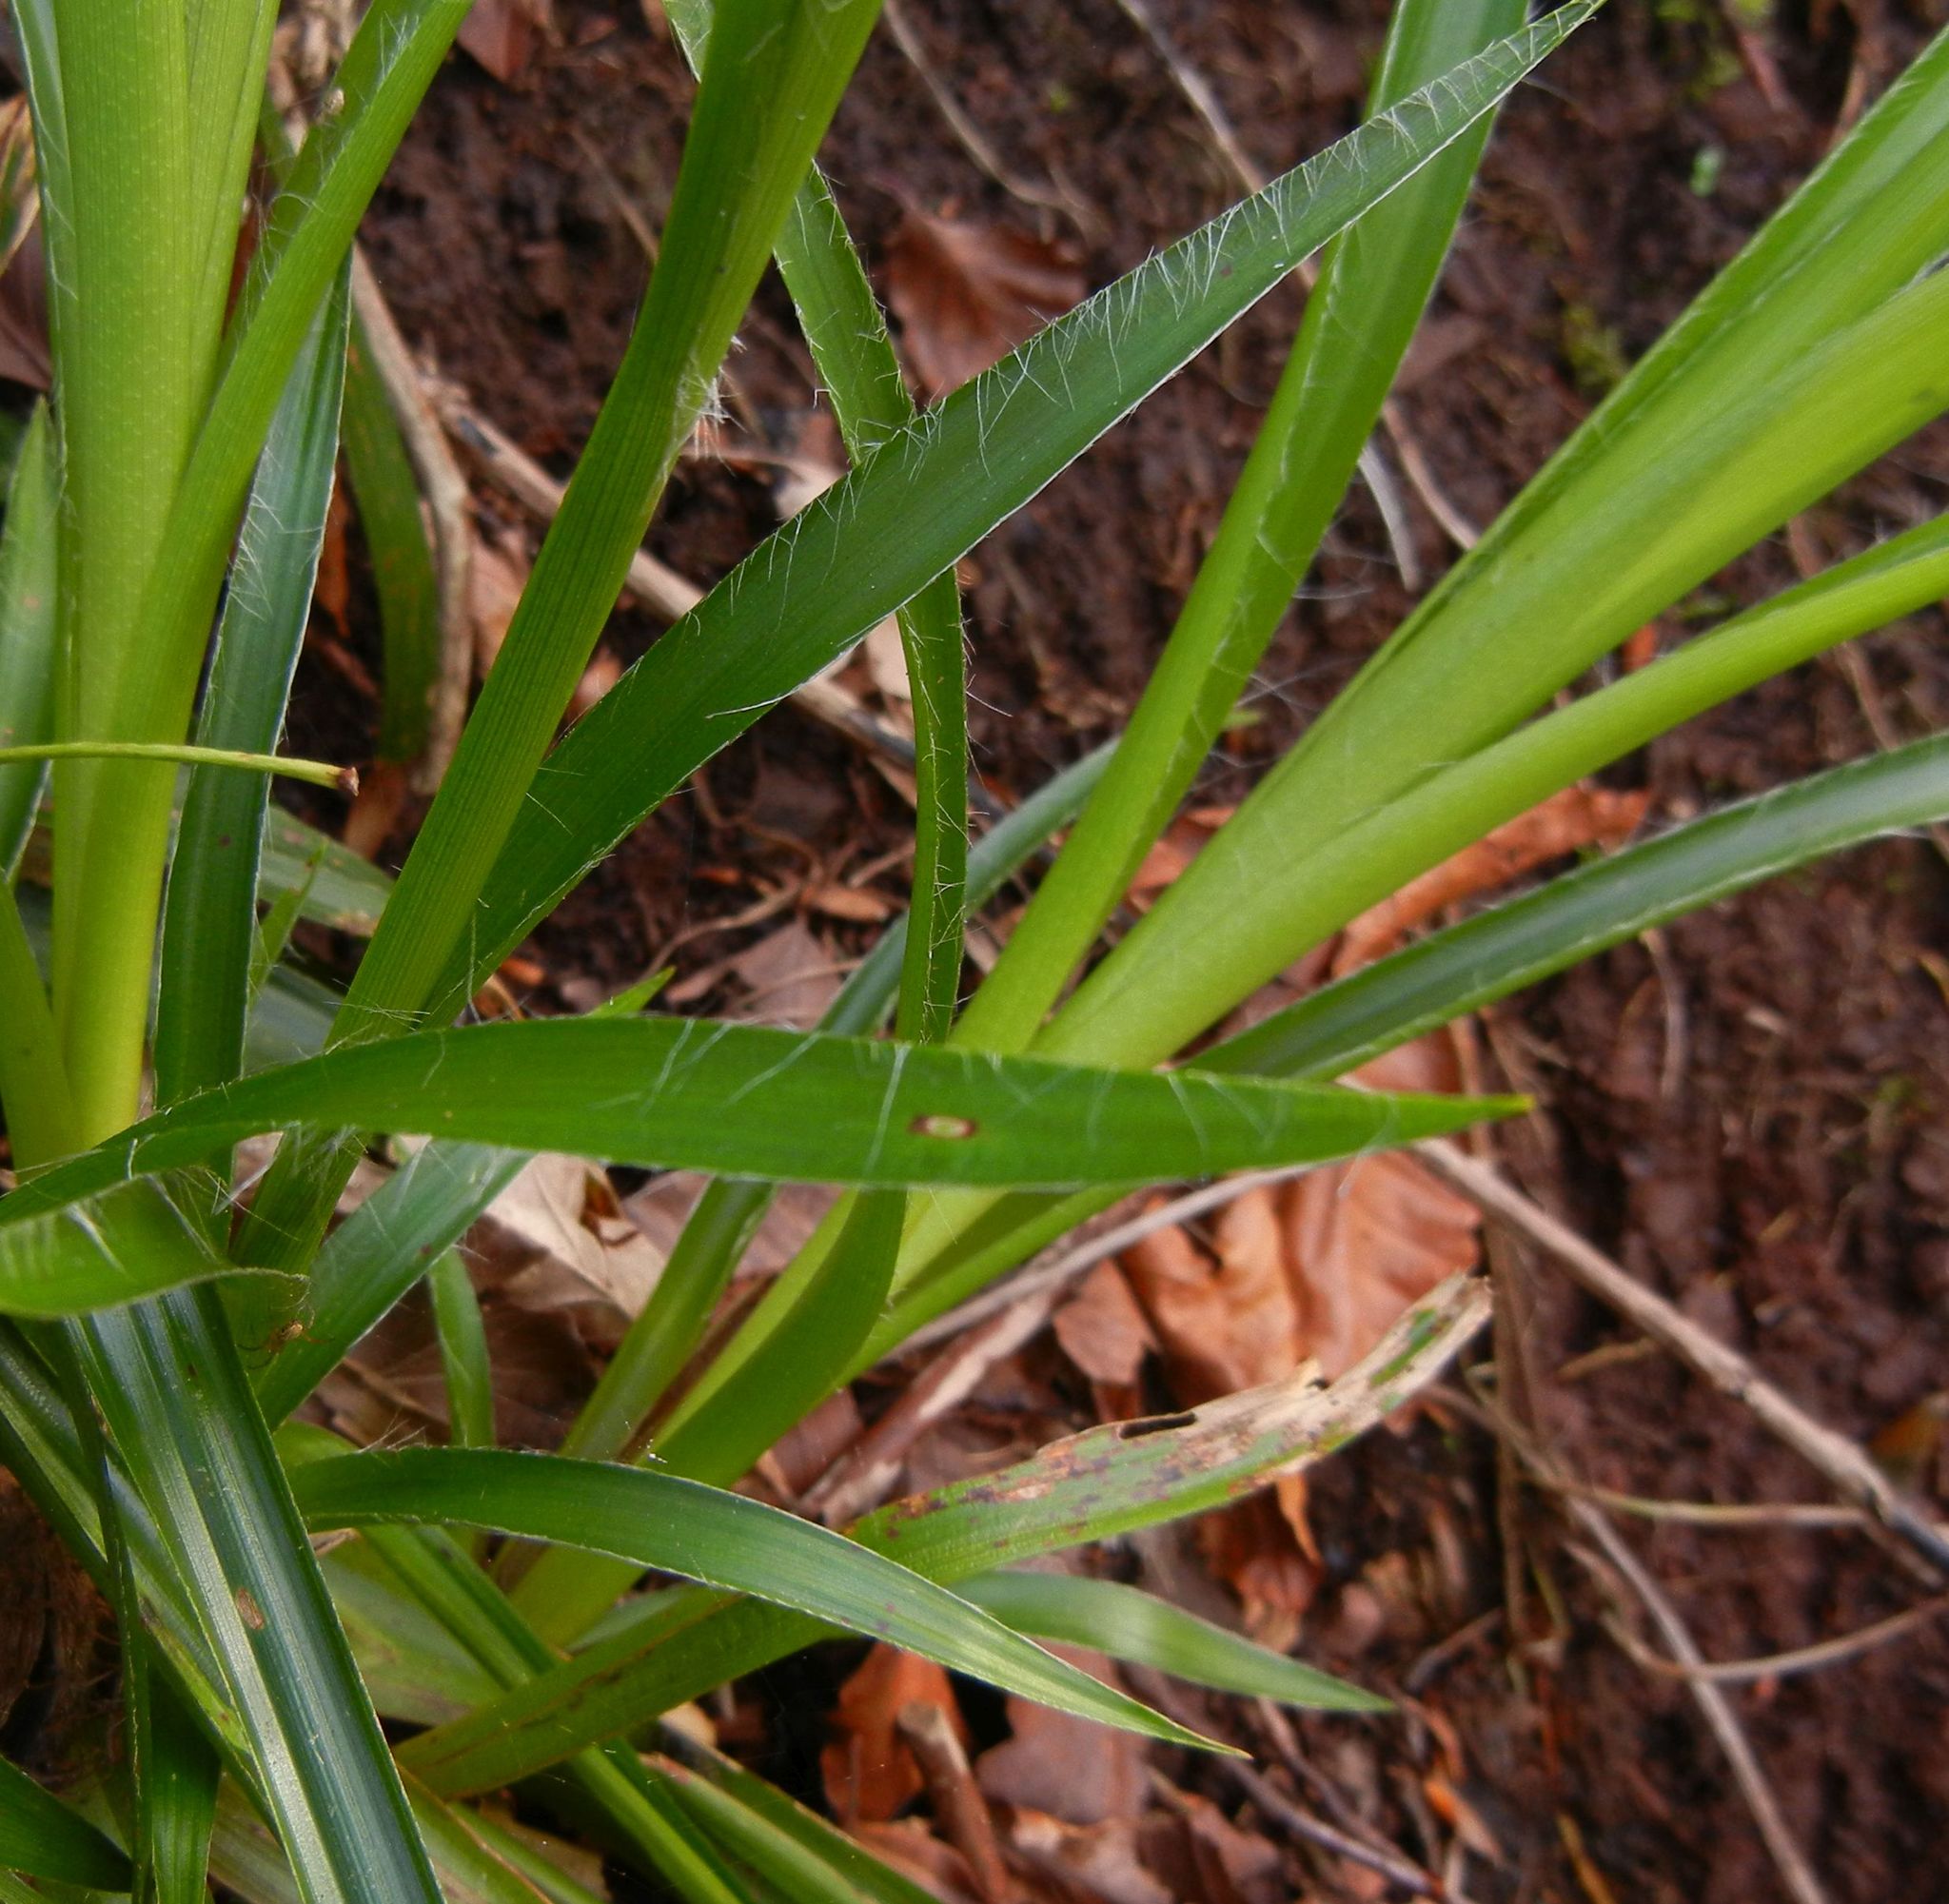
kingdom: Plantae
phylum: Tracheophyta
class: Liliopsida
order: Poales
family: Juncaceae
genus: Luzula
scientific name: Luzula sylvatica
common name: Great wood-rush
